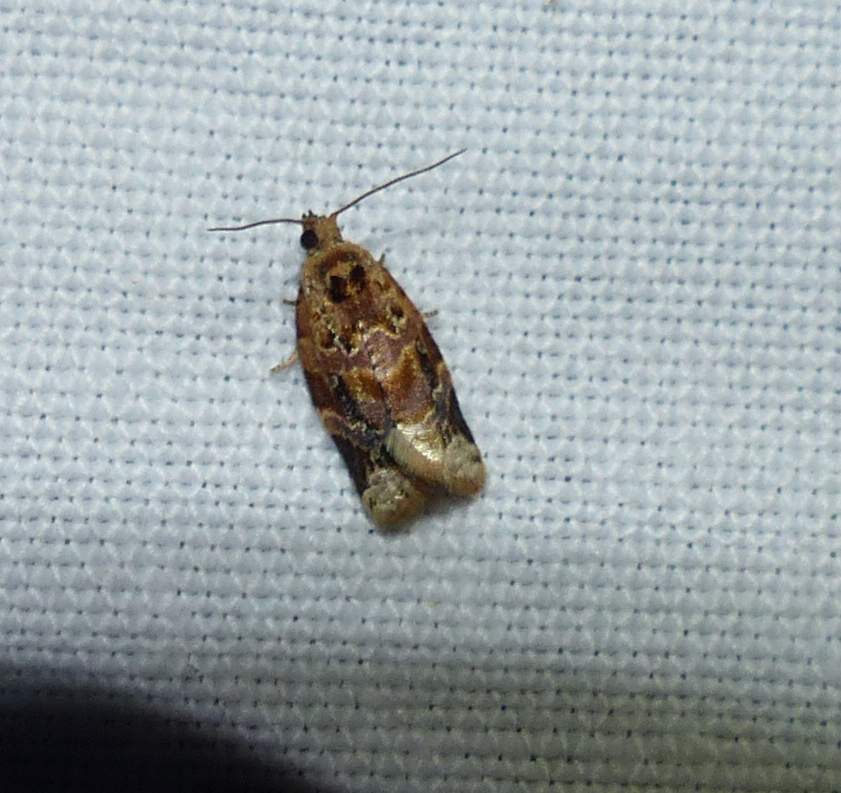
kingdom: Animalia
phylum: Arthropoda
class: Insecta
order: Lepidoptera
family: Tortricidae
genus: Argyrotaenia
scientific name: Argyrotaenia velutinana
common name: Red-banded leafroller moth
